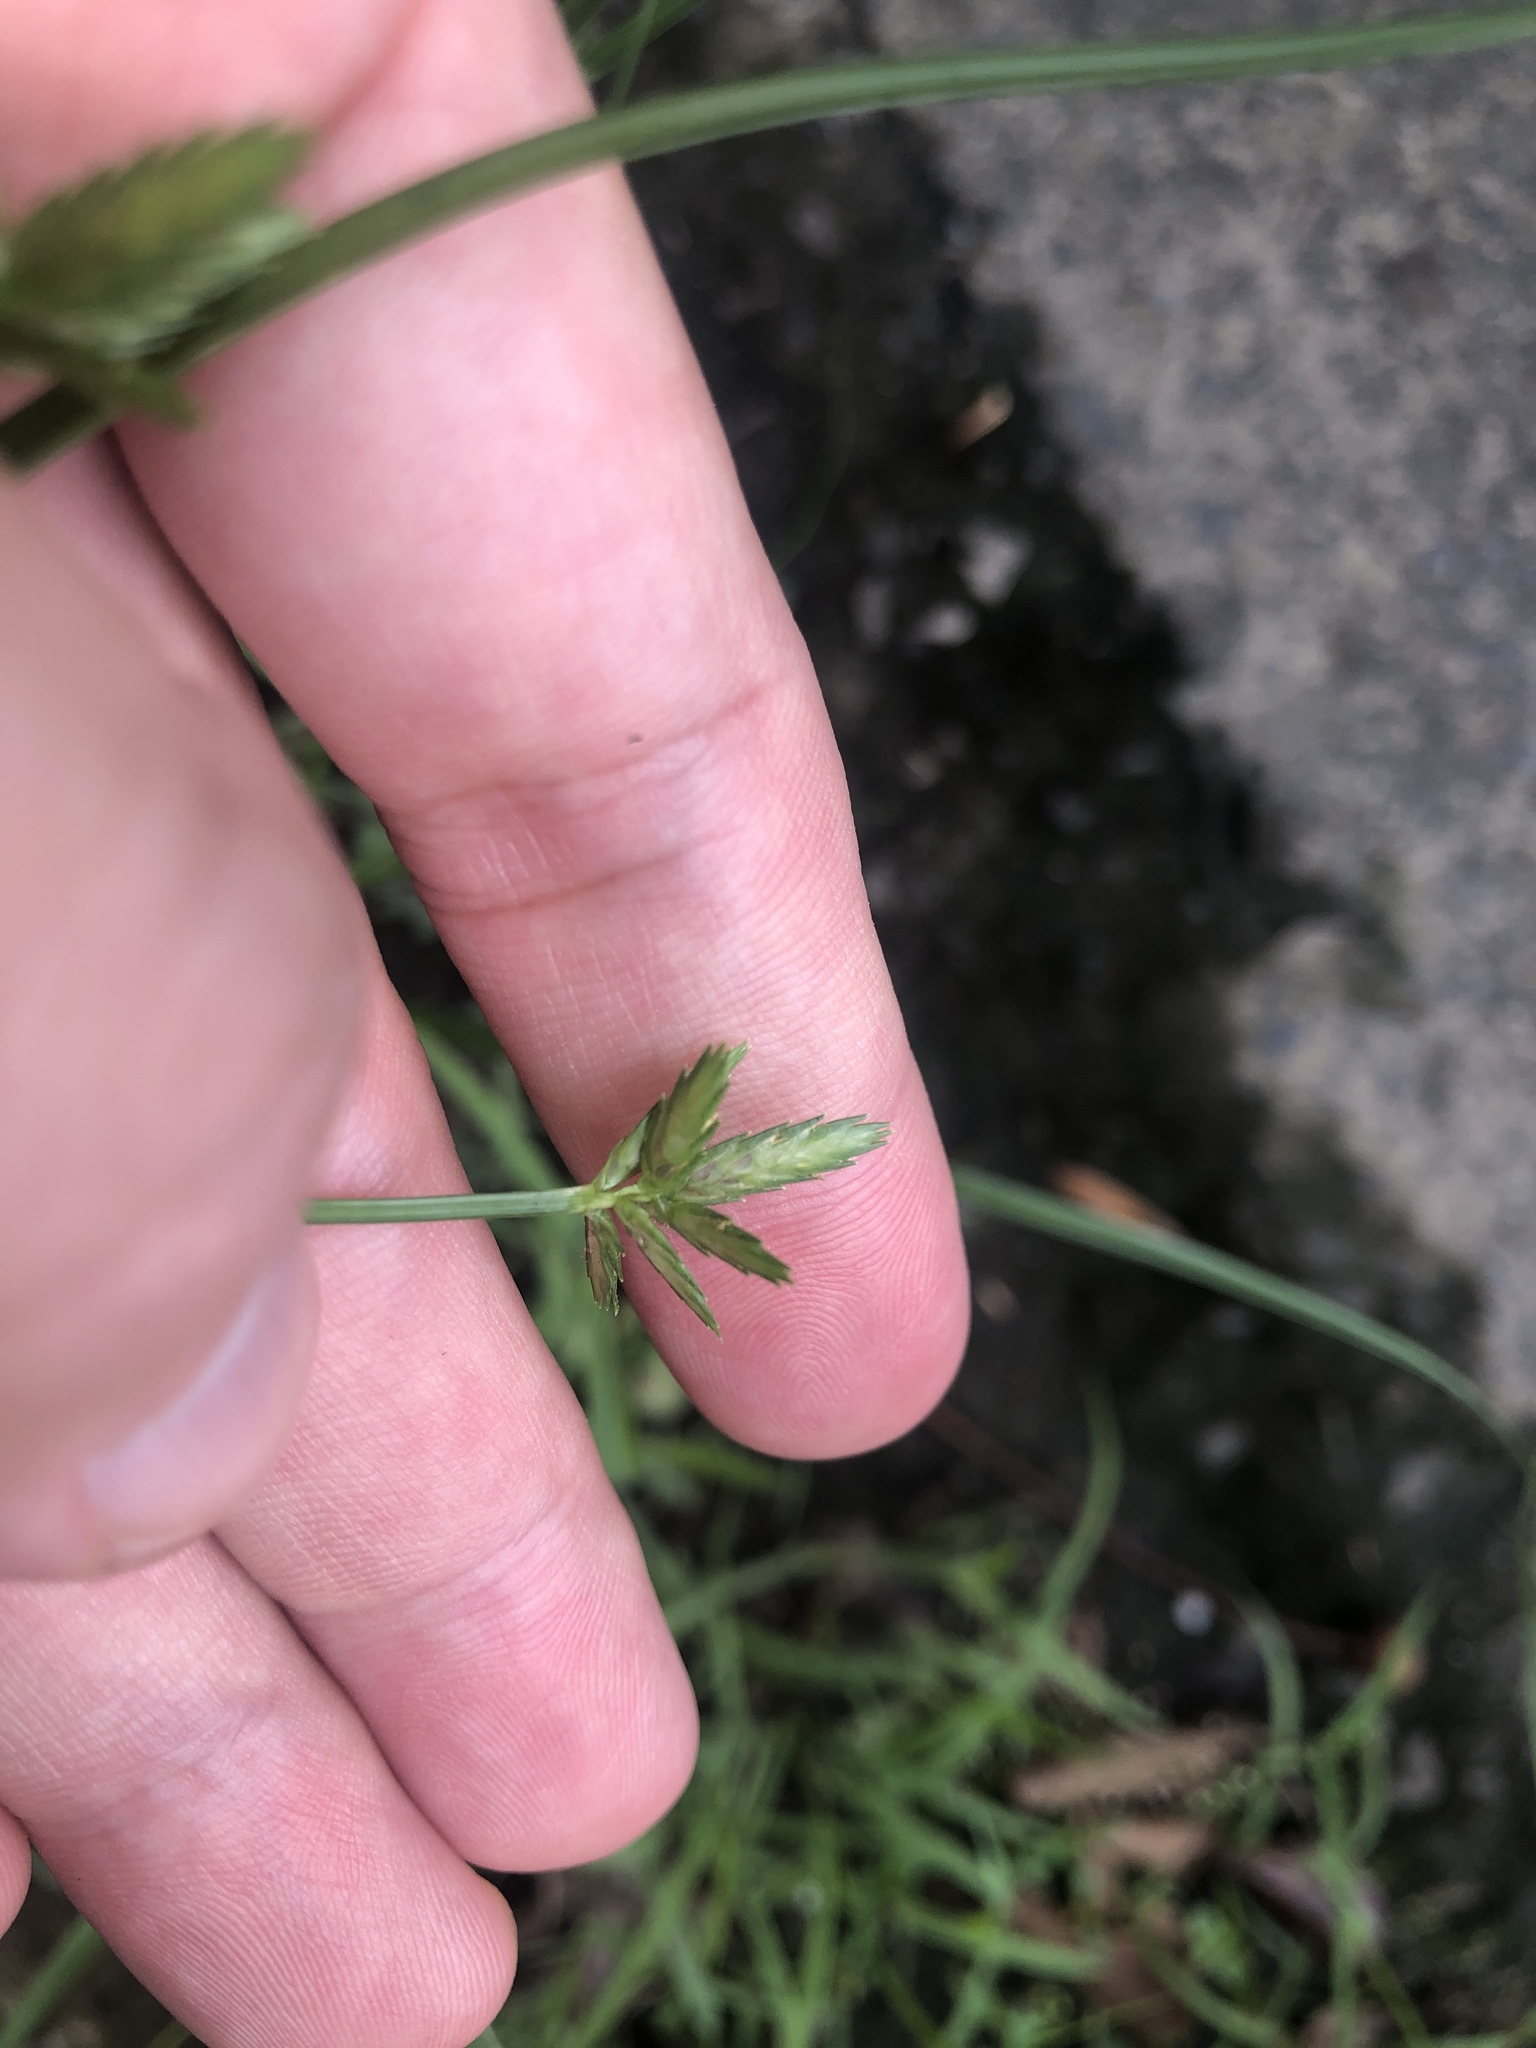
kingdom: Plantae
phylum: Tracheophyta
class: Liliopsida
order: Poales
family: Cyperaceae
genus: Cyperus
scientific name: Cyperus polystachyos
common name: Bunchy flat sedge
